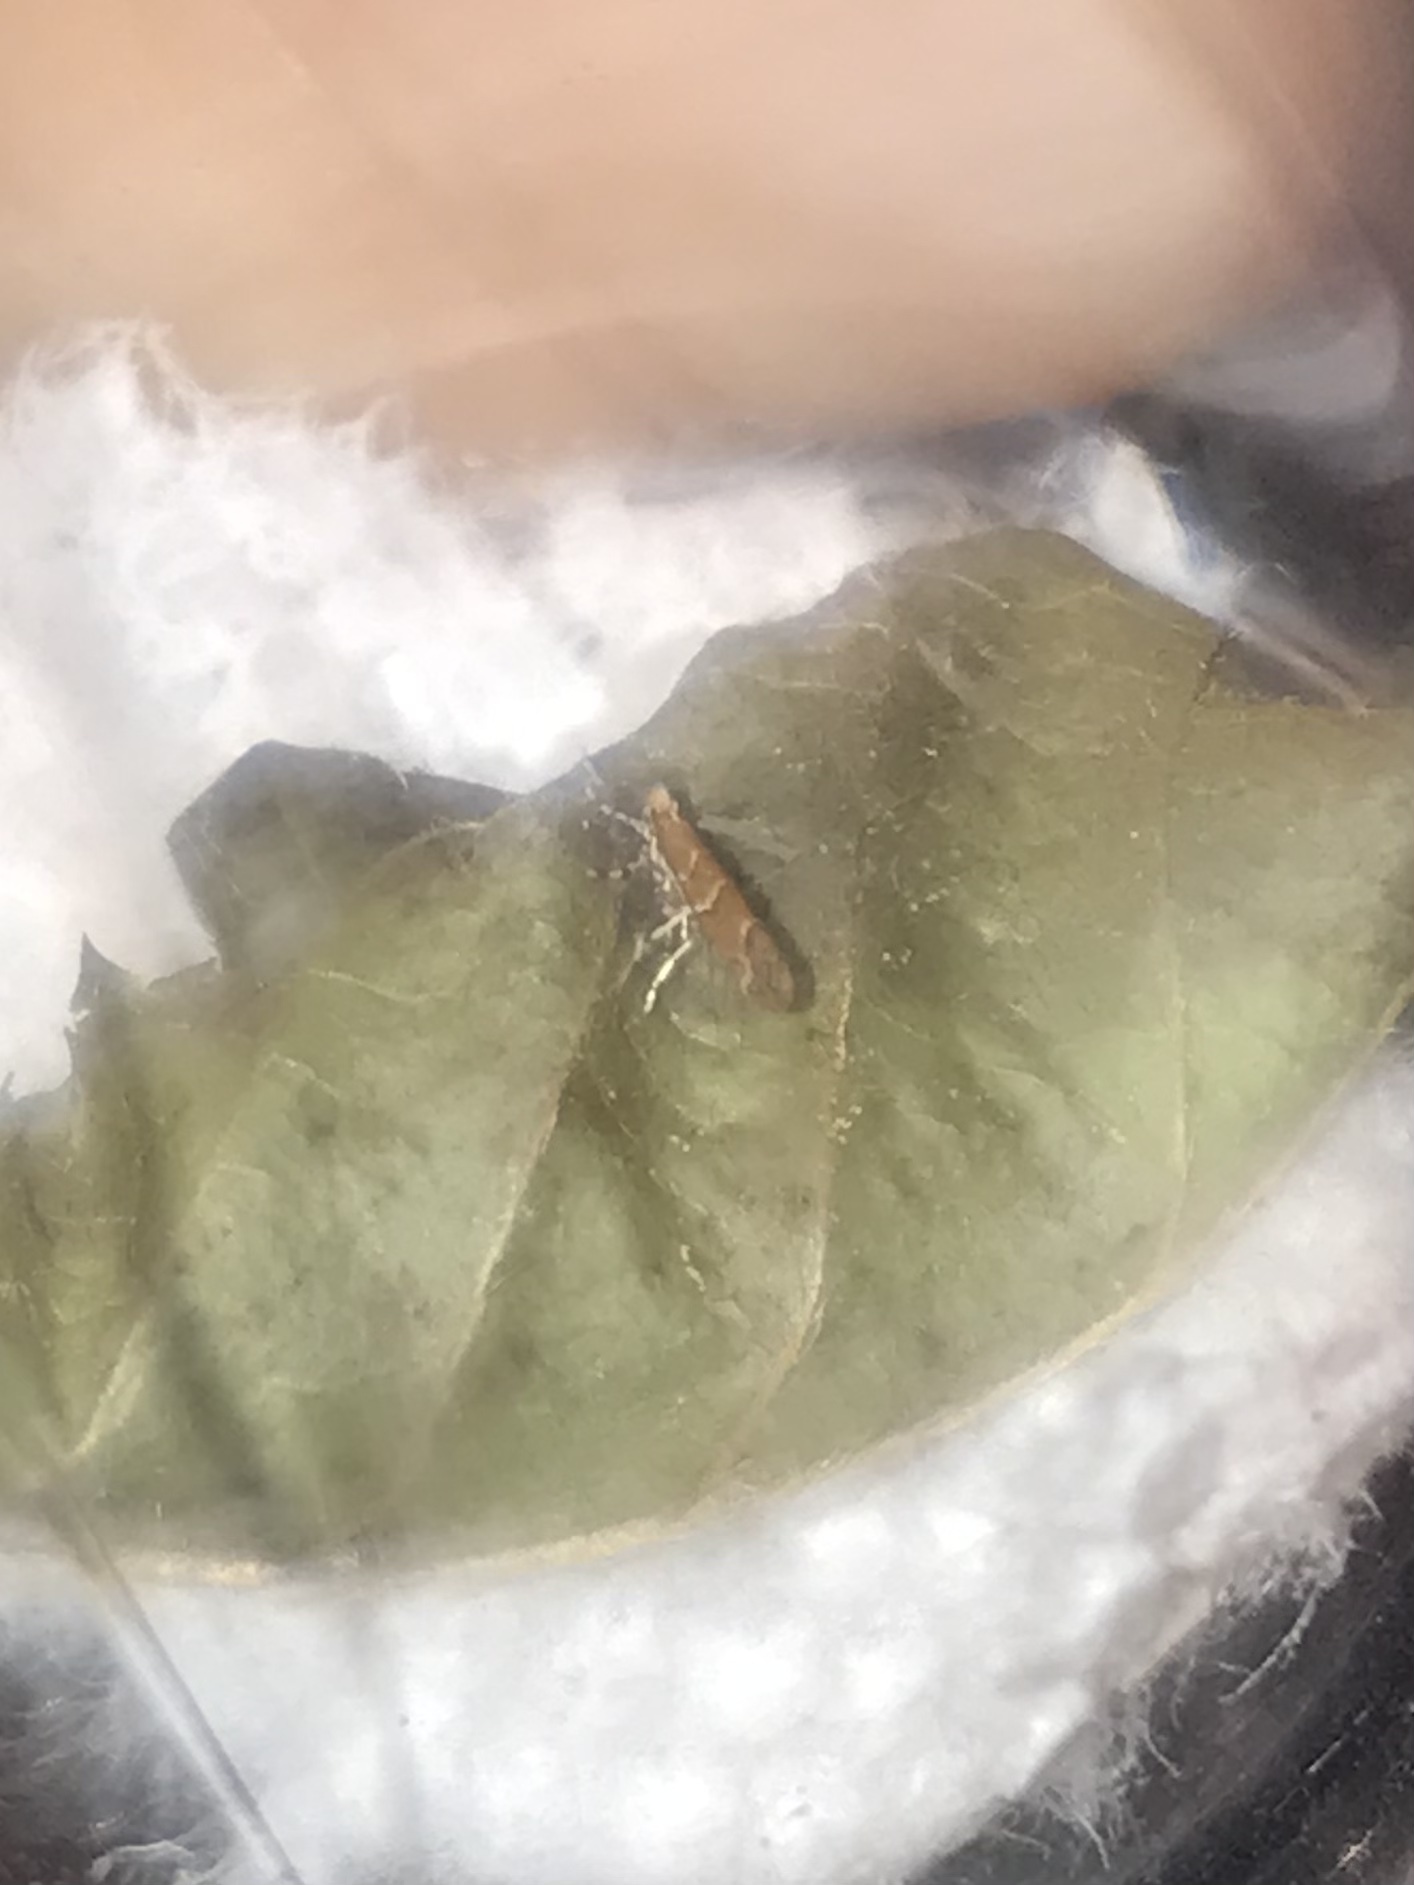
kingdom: Animalia
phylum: Arthropoda
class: Insecta
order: Lepidoptera
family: Gracillariidae
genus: Cameraria
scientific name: Cameraria lentella
